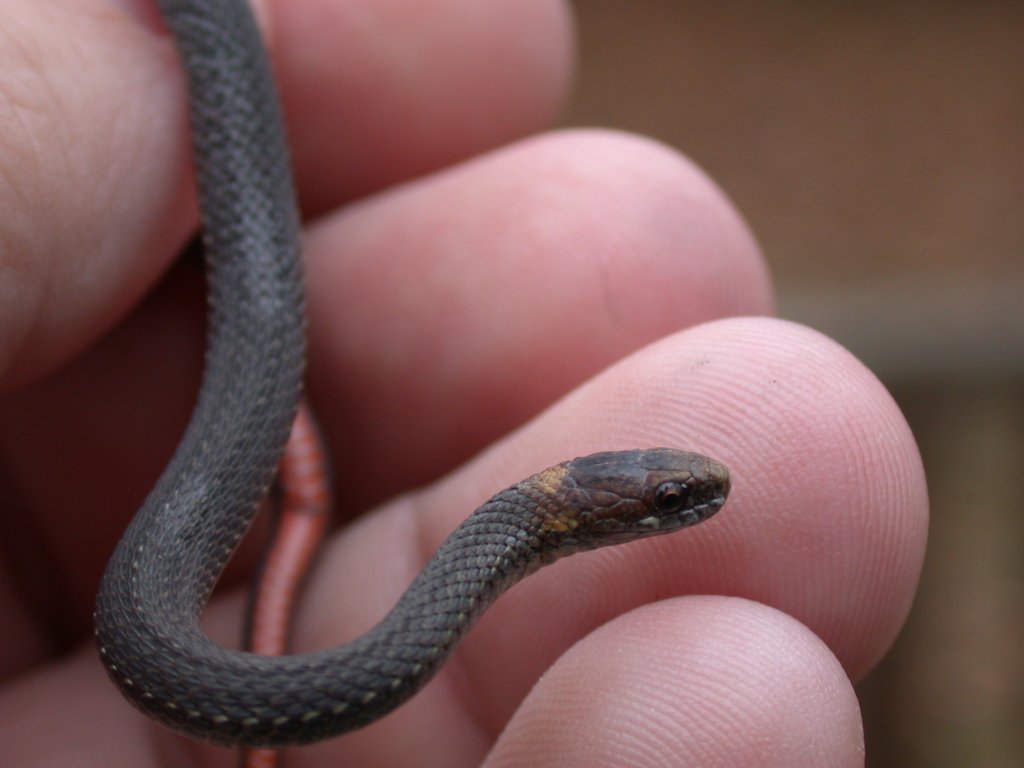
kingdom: Animalia
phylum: Chordata
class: Squamata
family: Colubridae
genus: Storeria
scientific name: Storeria occipitomaculata
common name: Redbelly snake
